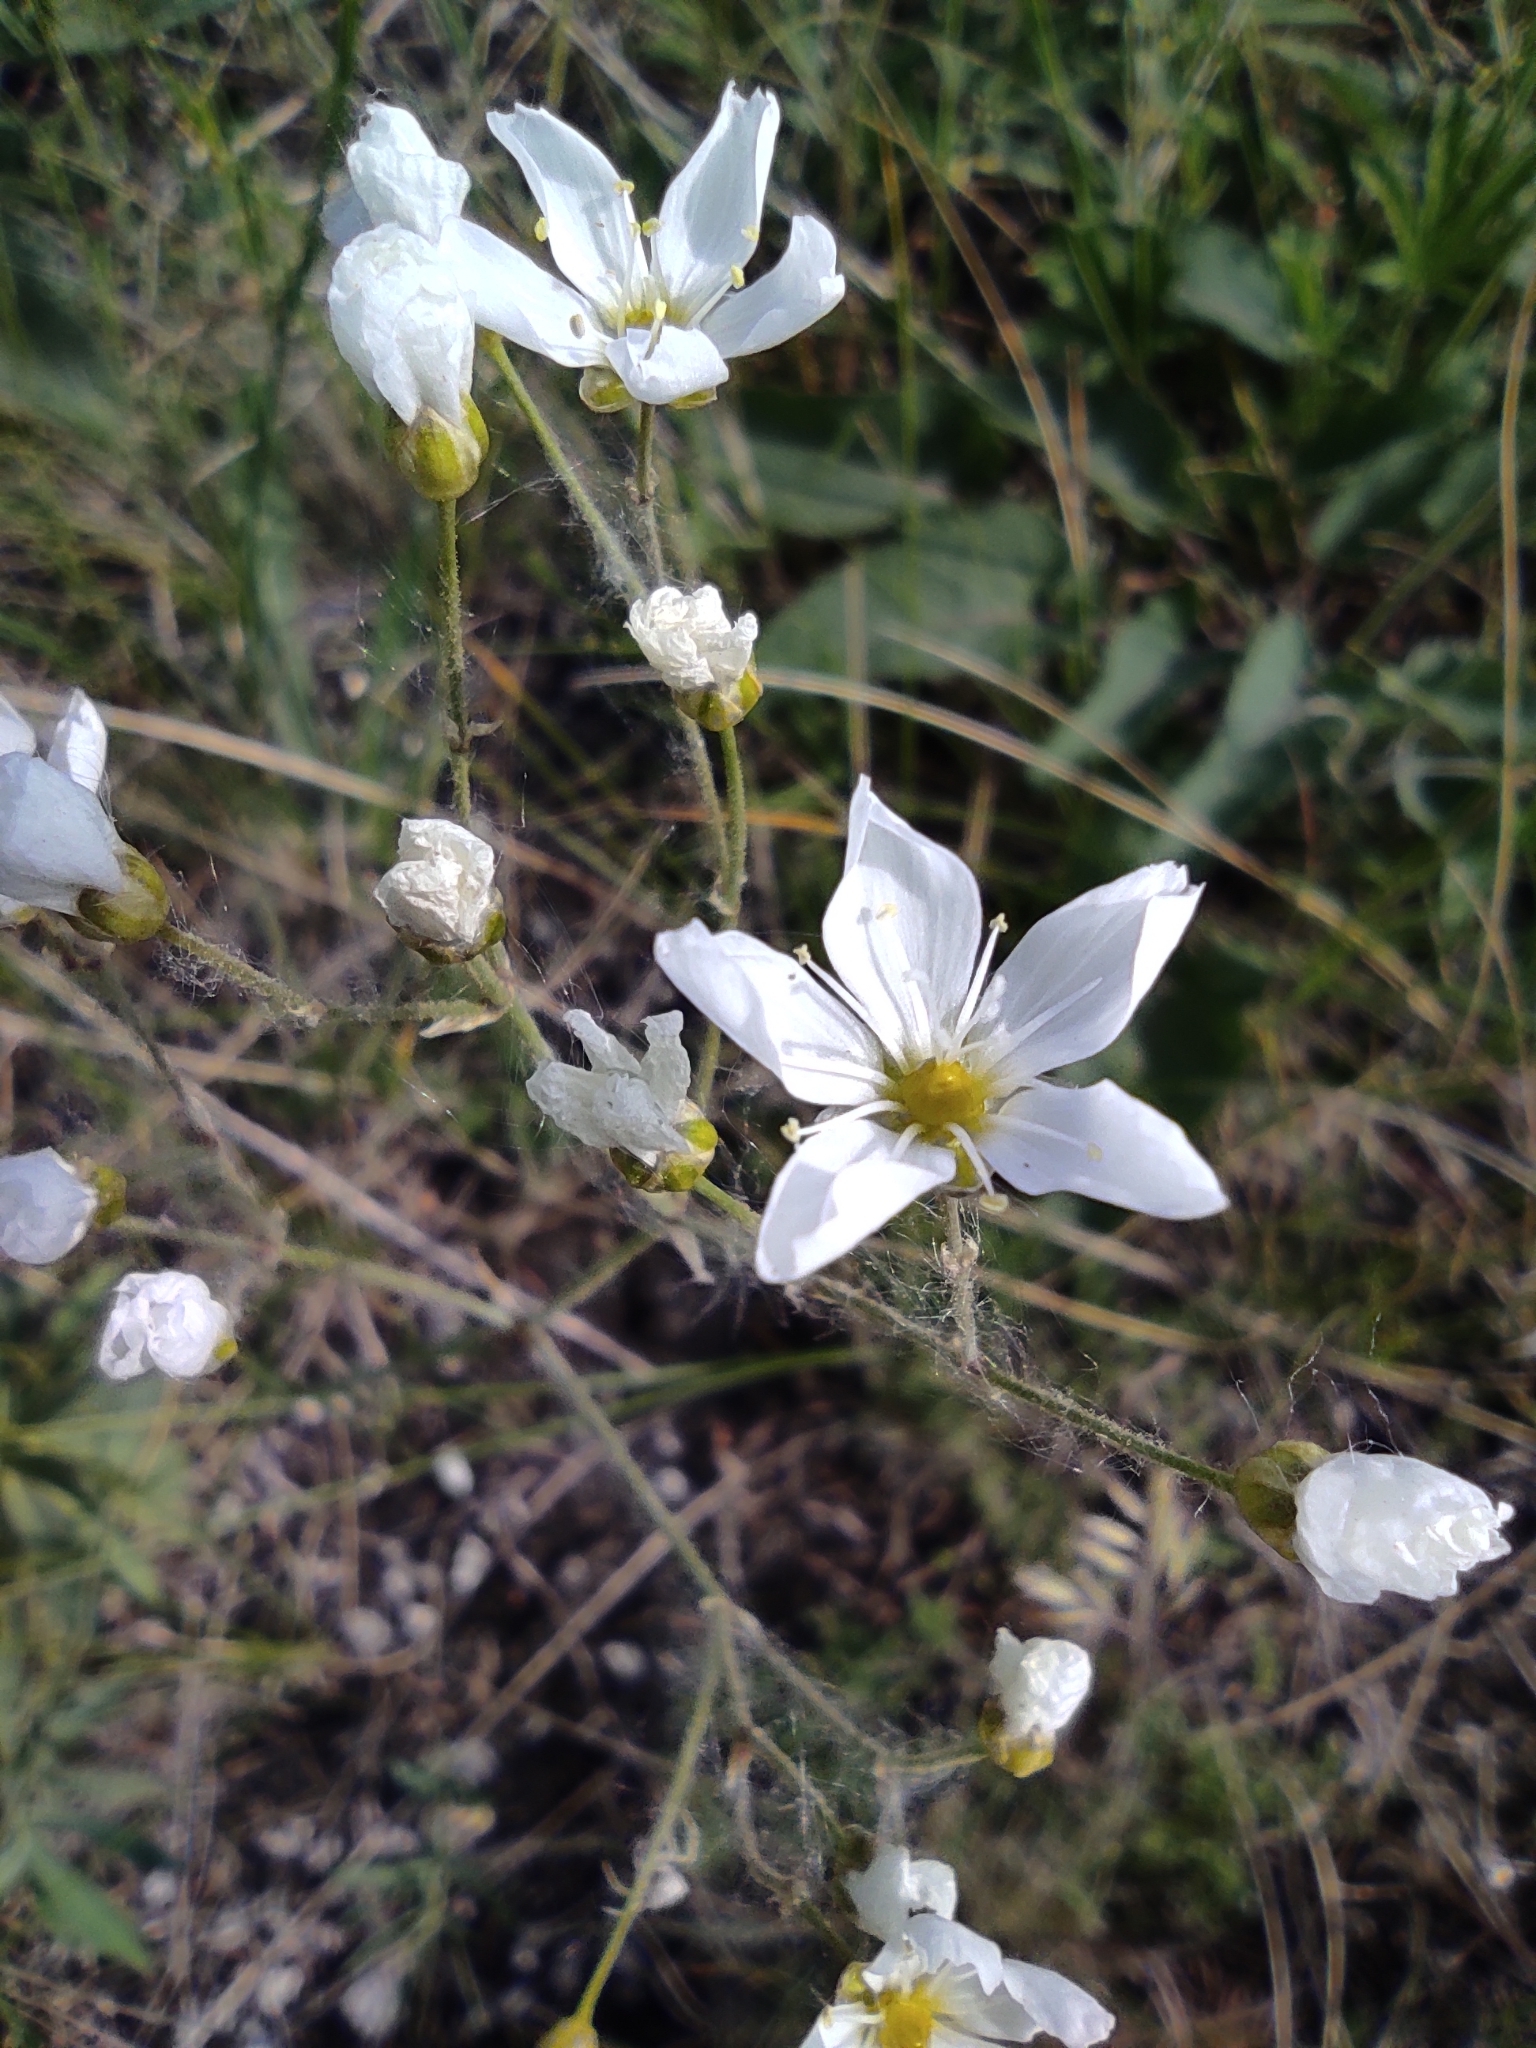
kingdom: Plantae
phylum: Tracheophyta
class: Magnoliopsida
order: Caryophyllales
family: Caryophyllaceae
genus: Eremogone
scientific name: Eremogone biebersteinii
